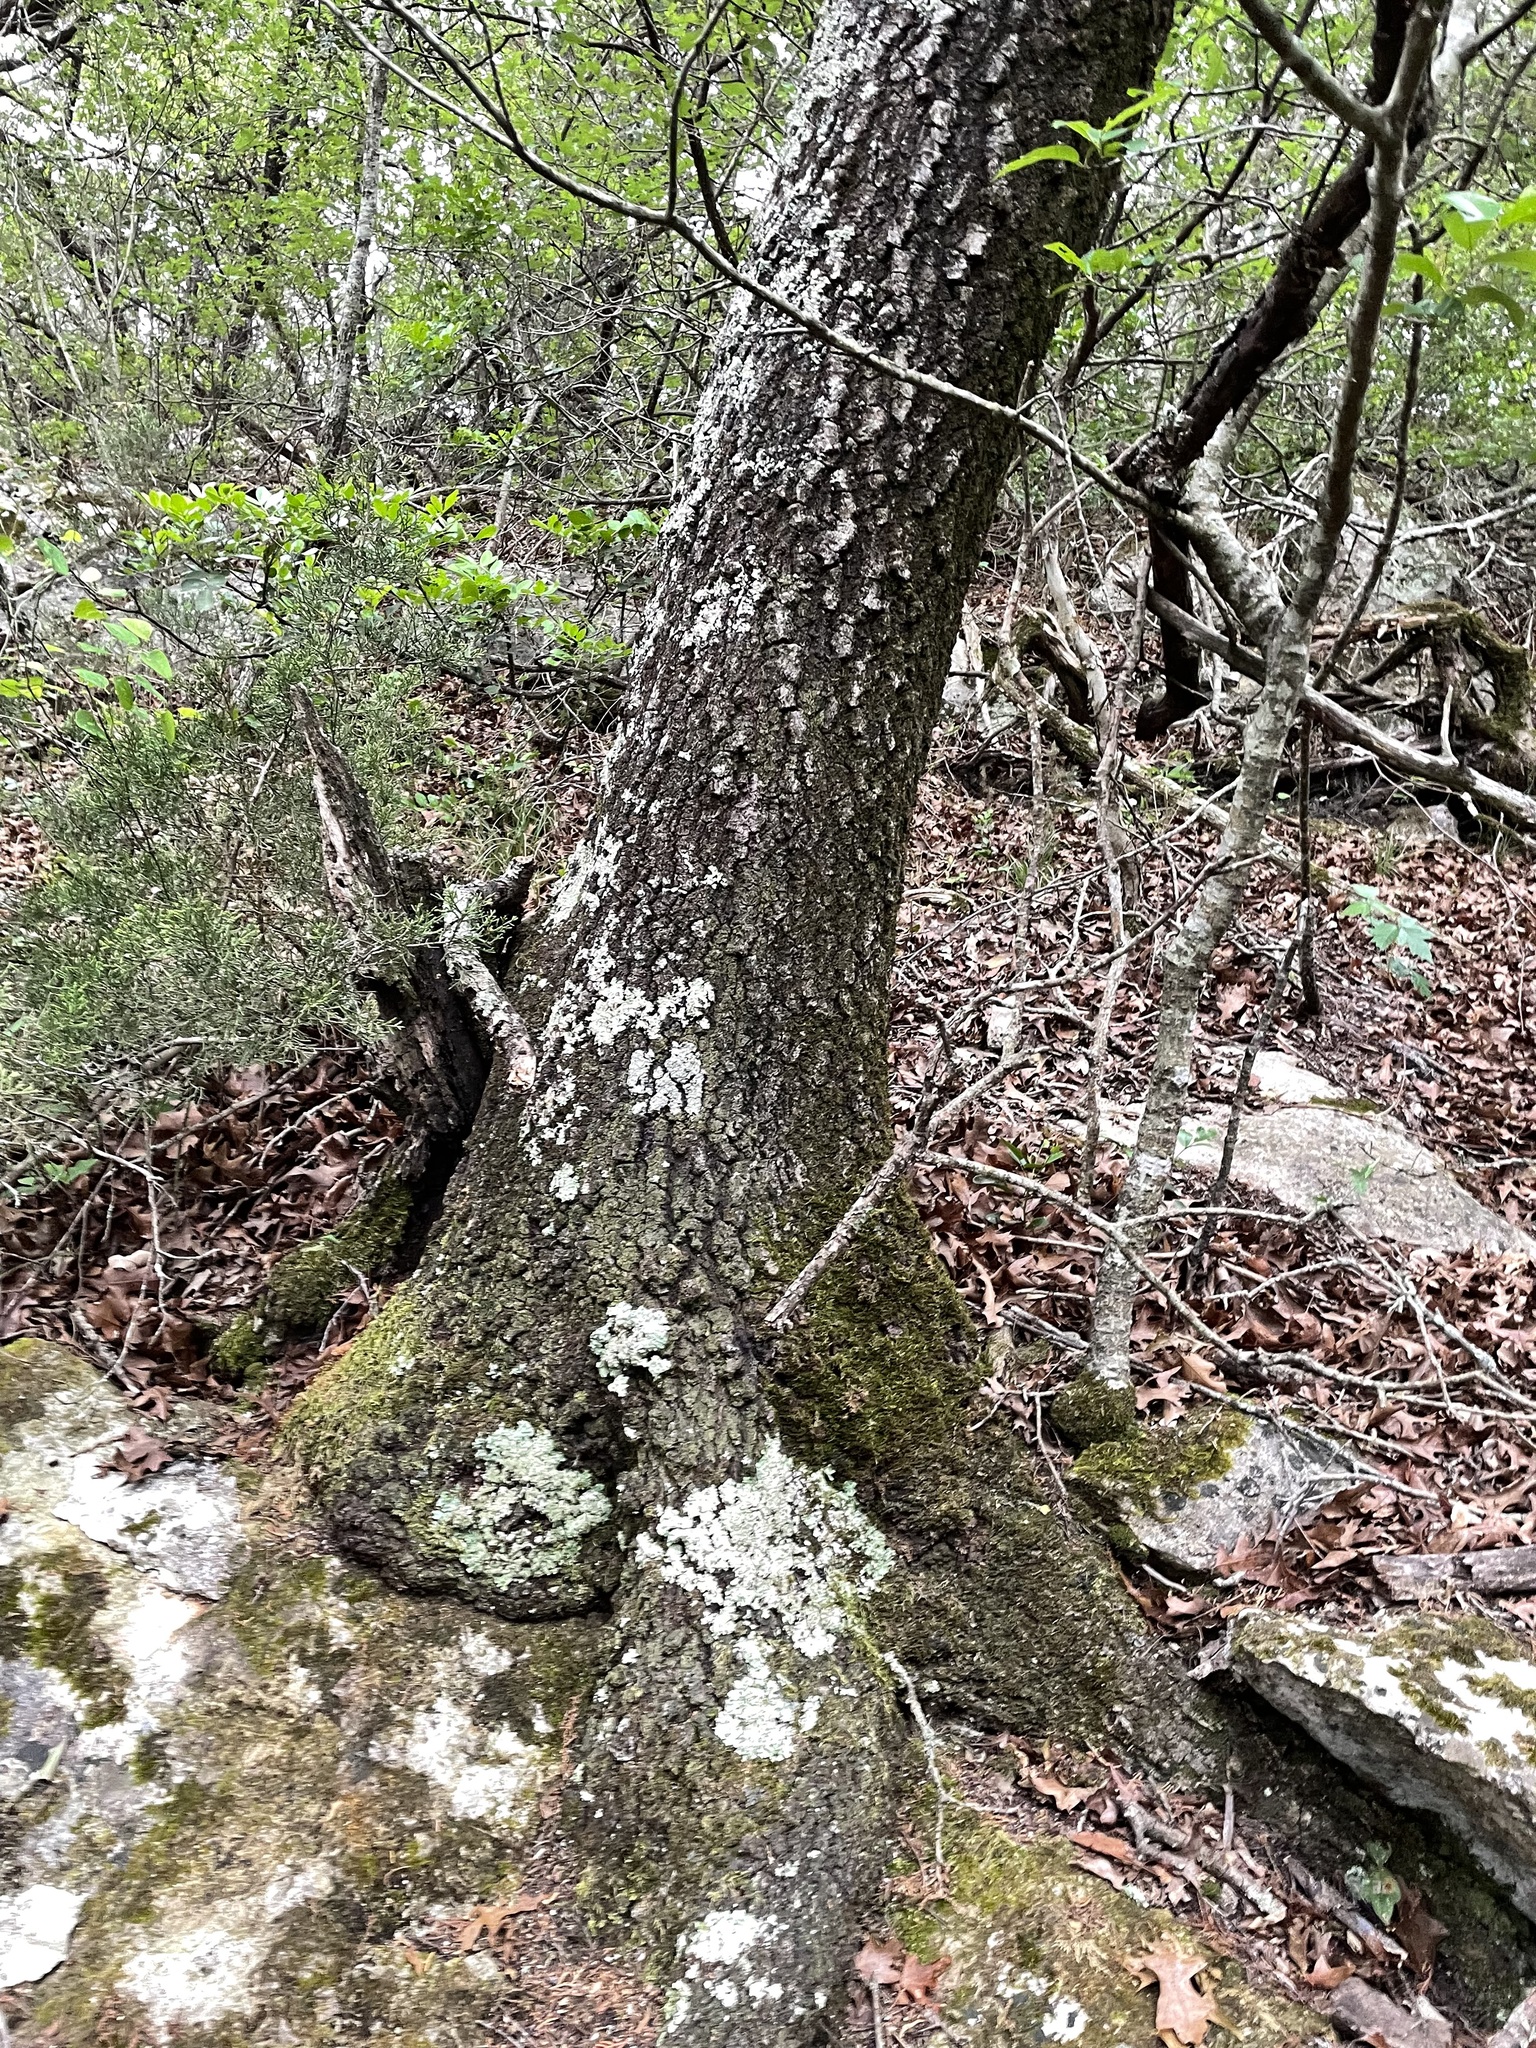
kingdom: Plantae
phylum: Tracheophyta
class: Magnoliopsida
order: Fagales
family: Fagaceae
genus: Quercus
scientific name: Quercus buckleyi
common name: Buckley oak
